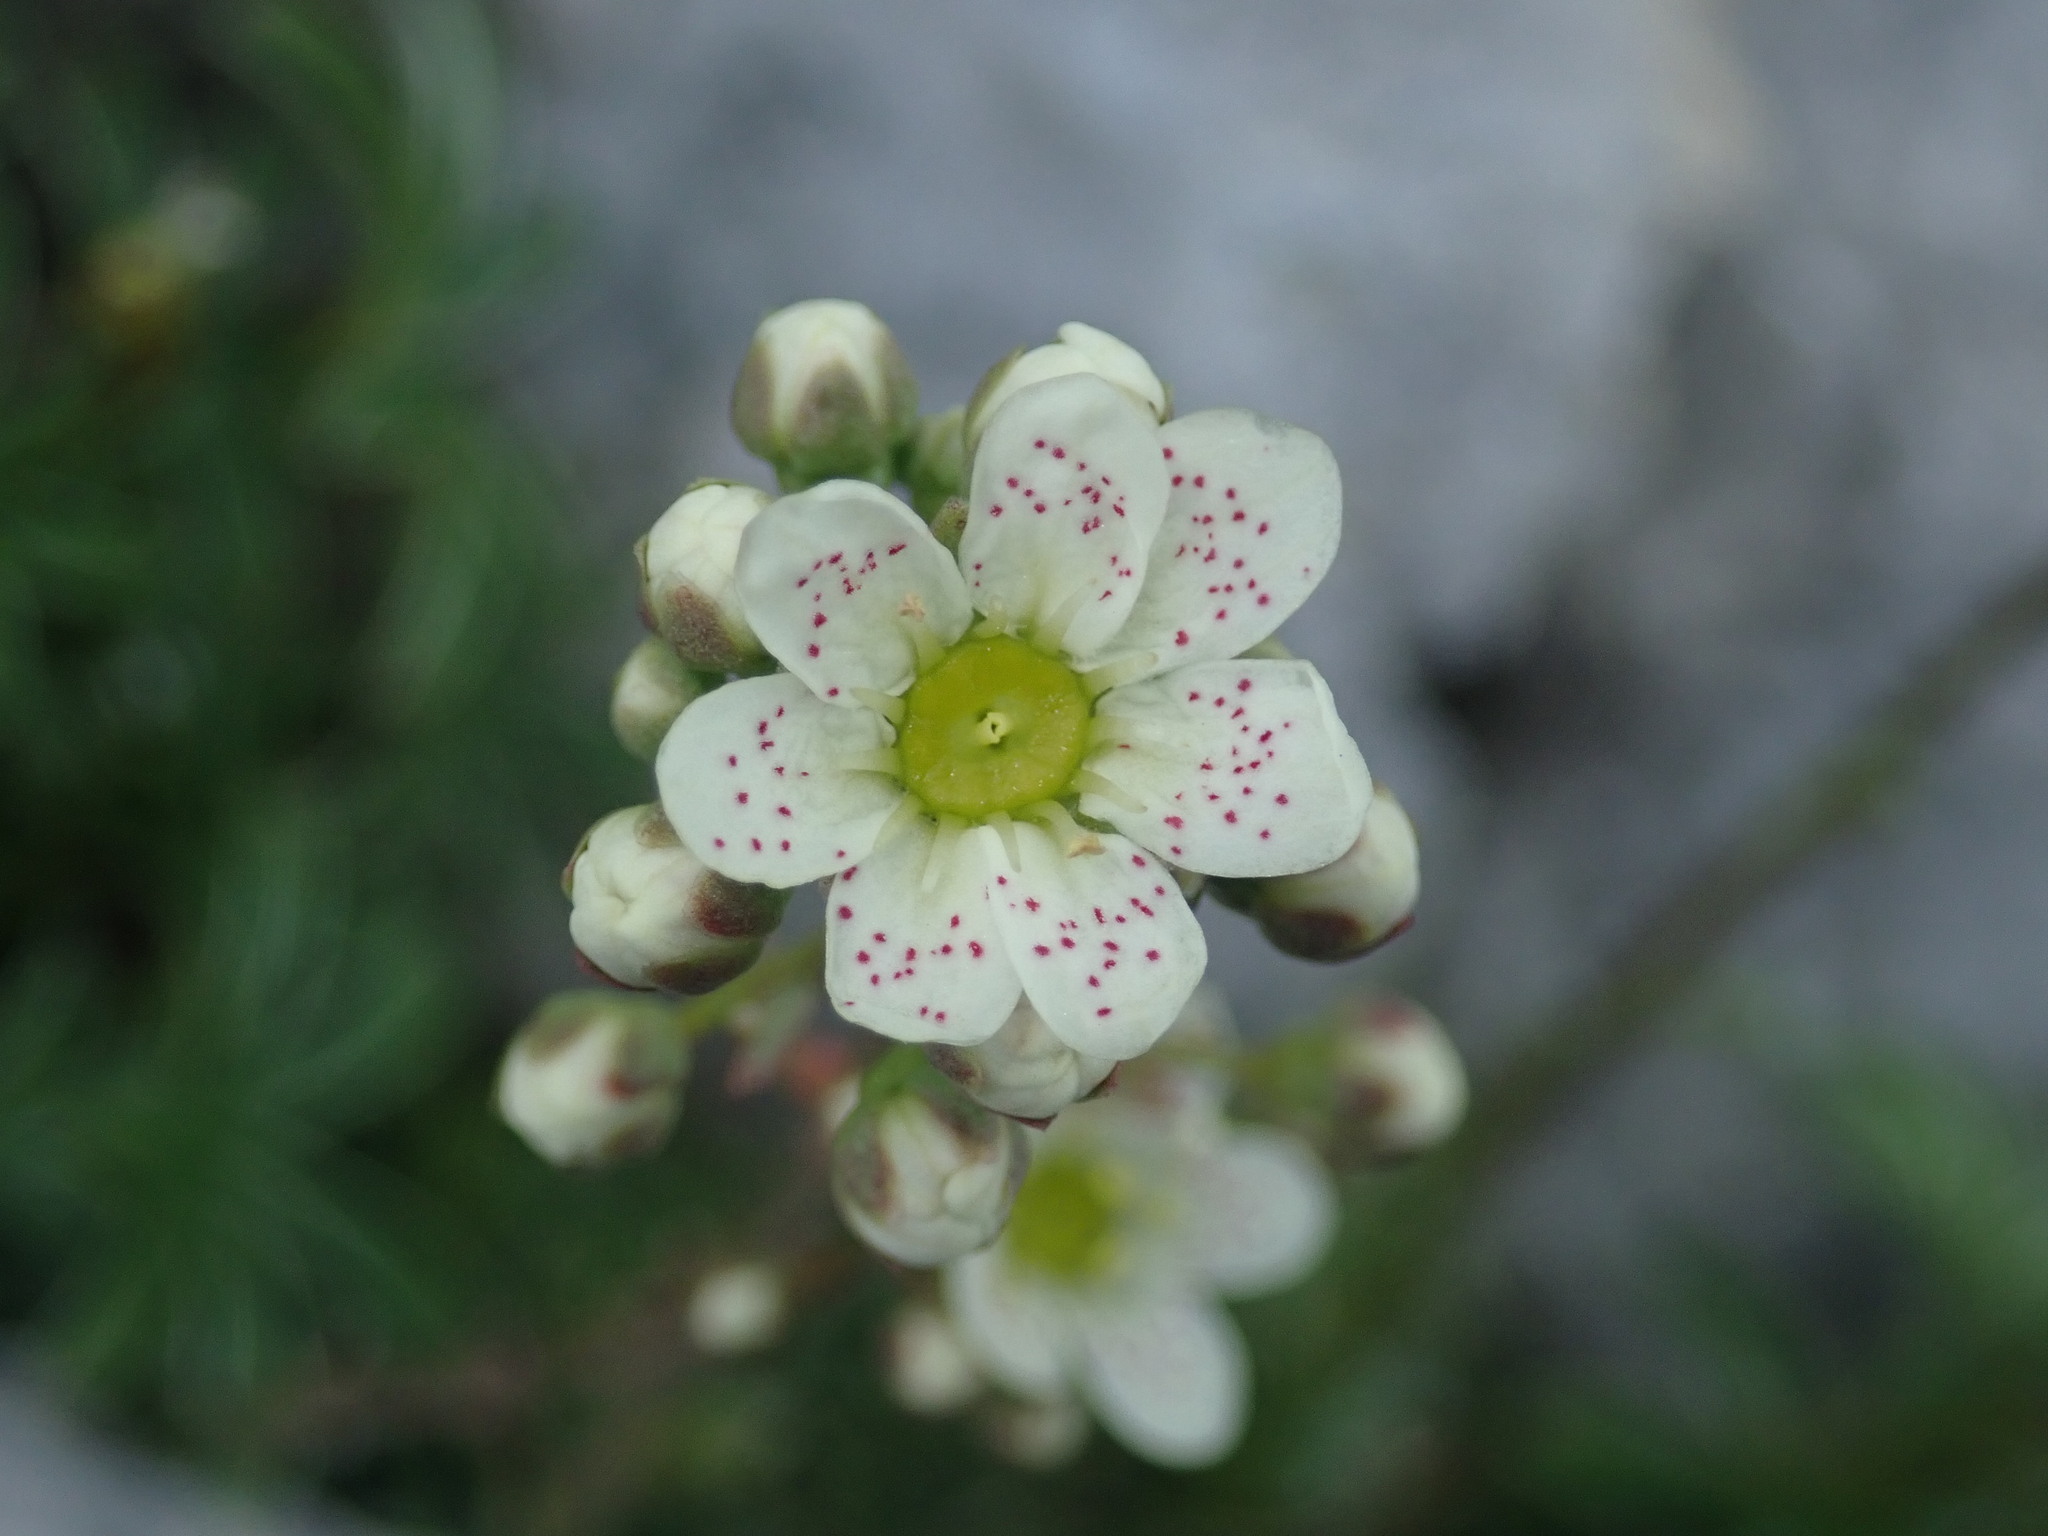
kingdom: Plantae
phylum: Tracheophyta
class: Magnoliopsida
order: Saxifragales
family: Saxifragaceae
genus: Saxifraga
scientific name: Saxifraga paniculata
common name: Livelong saxifrage
